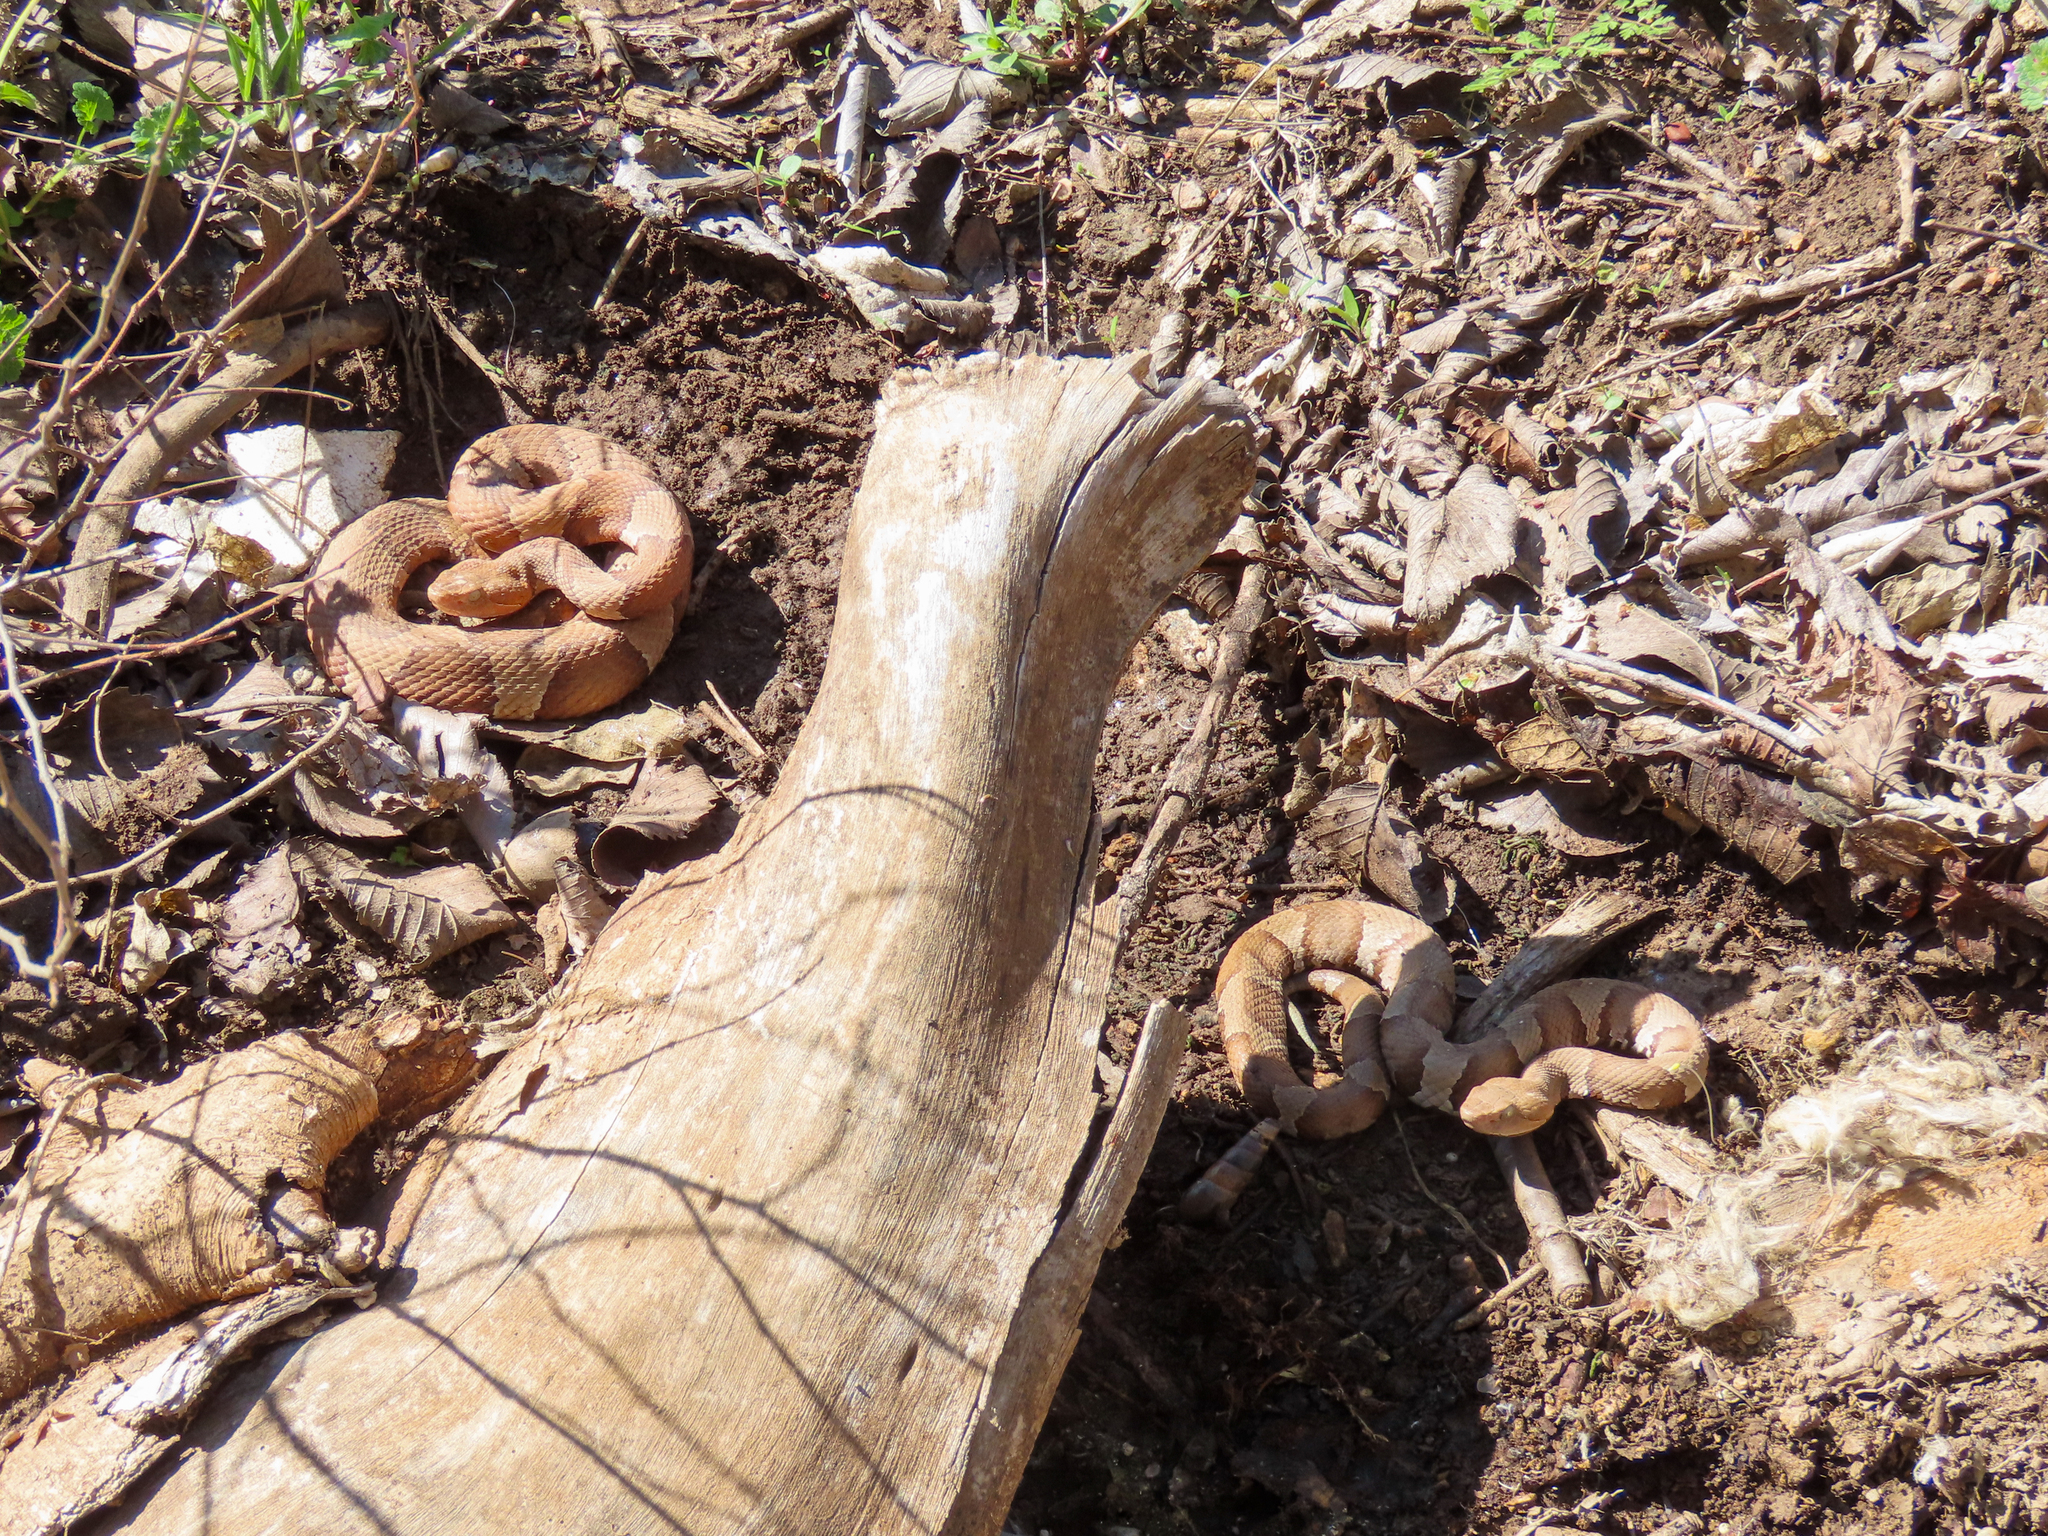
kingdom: Animalia
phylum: Chordata
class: Squamata
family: Viperidae
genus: Agkistrodon
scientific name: Agkistrodon laticinctus
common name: Broad-banded copperhead
